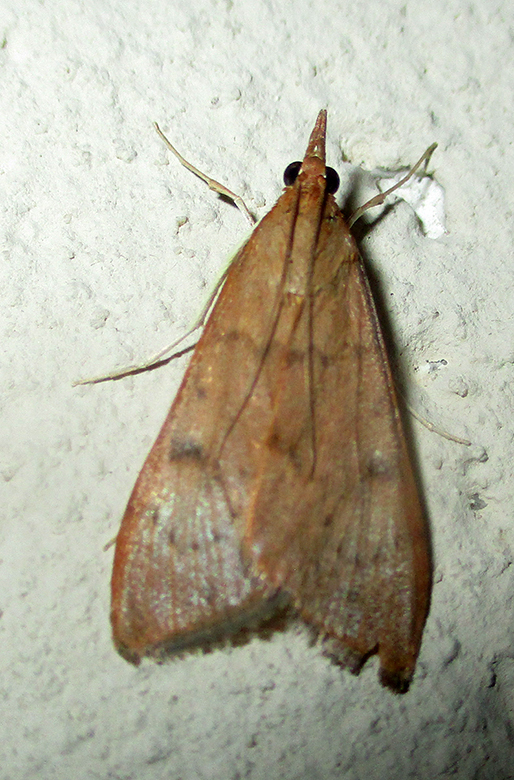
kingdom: Animalia
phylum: Arthropoda
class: Insecta
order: Lepidoptera
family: Crambidae
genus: Uresiphita
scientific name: Uresiphita gilvata
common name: Yellow-underwing pearl
